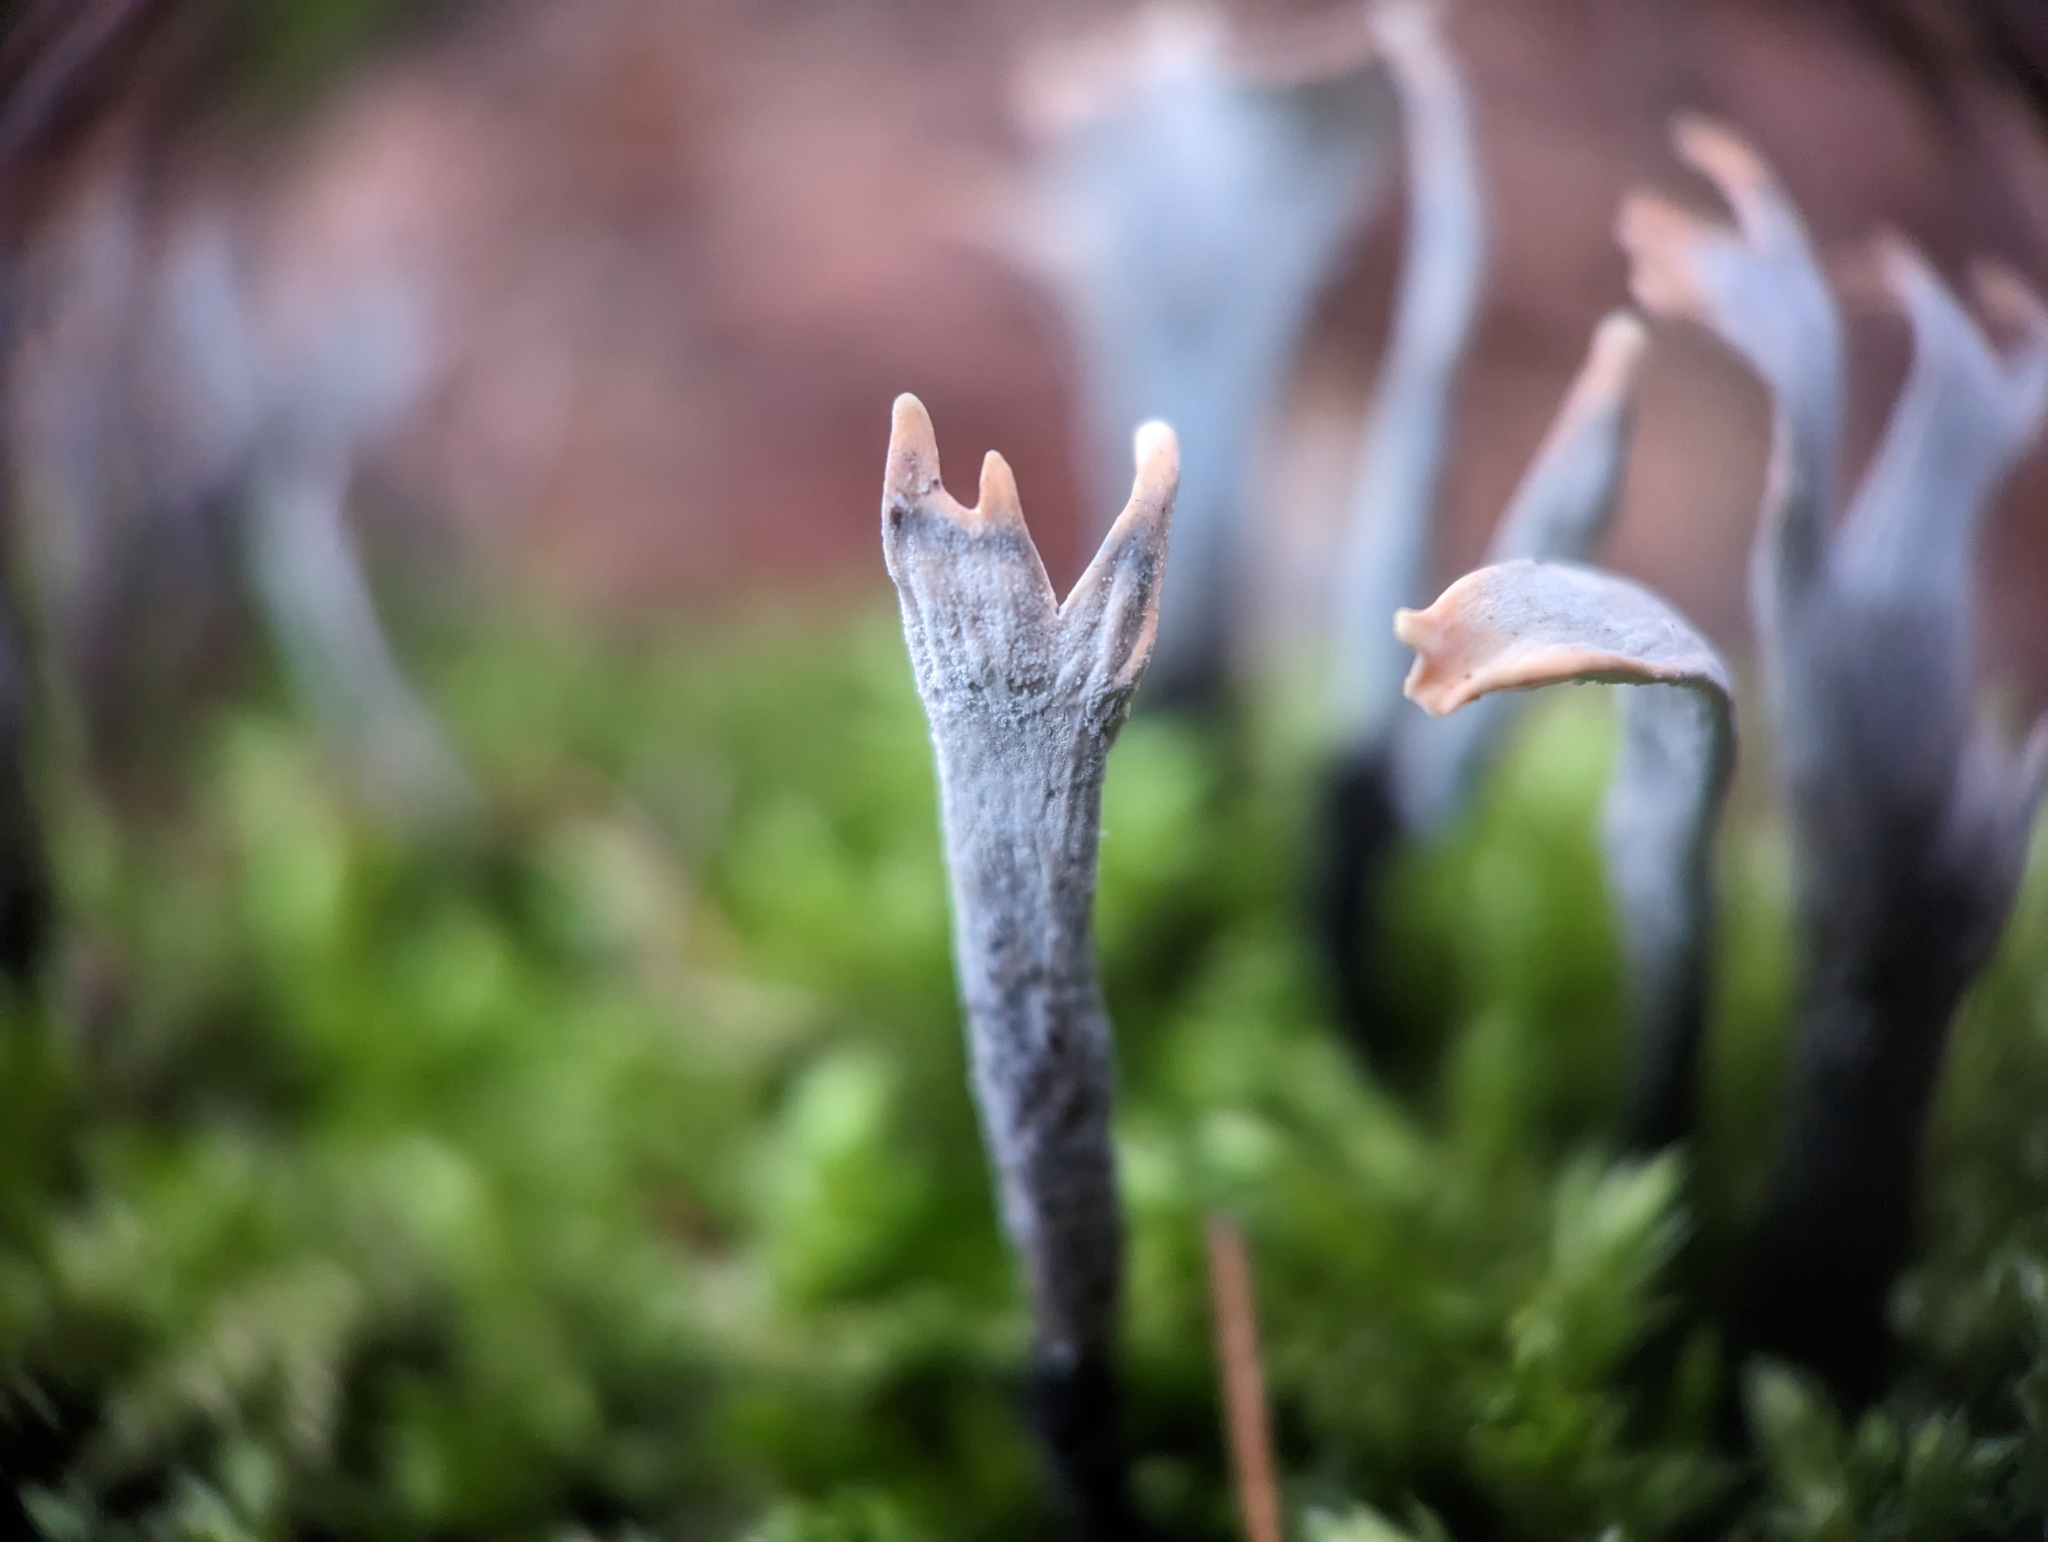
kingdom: Fungi
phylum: Ascomycota
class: Sordariomycetes
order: Xylariales
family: Xylariaceae
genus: Xylaria
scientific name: Xylaria hypoxylon
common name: Candle-snuff fungus
